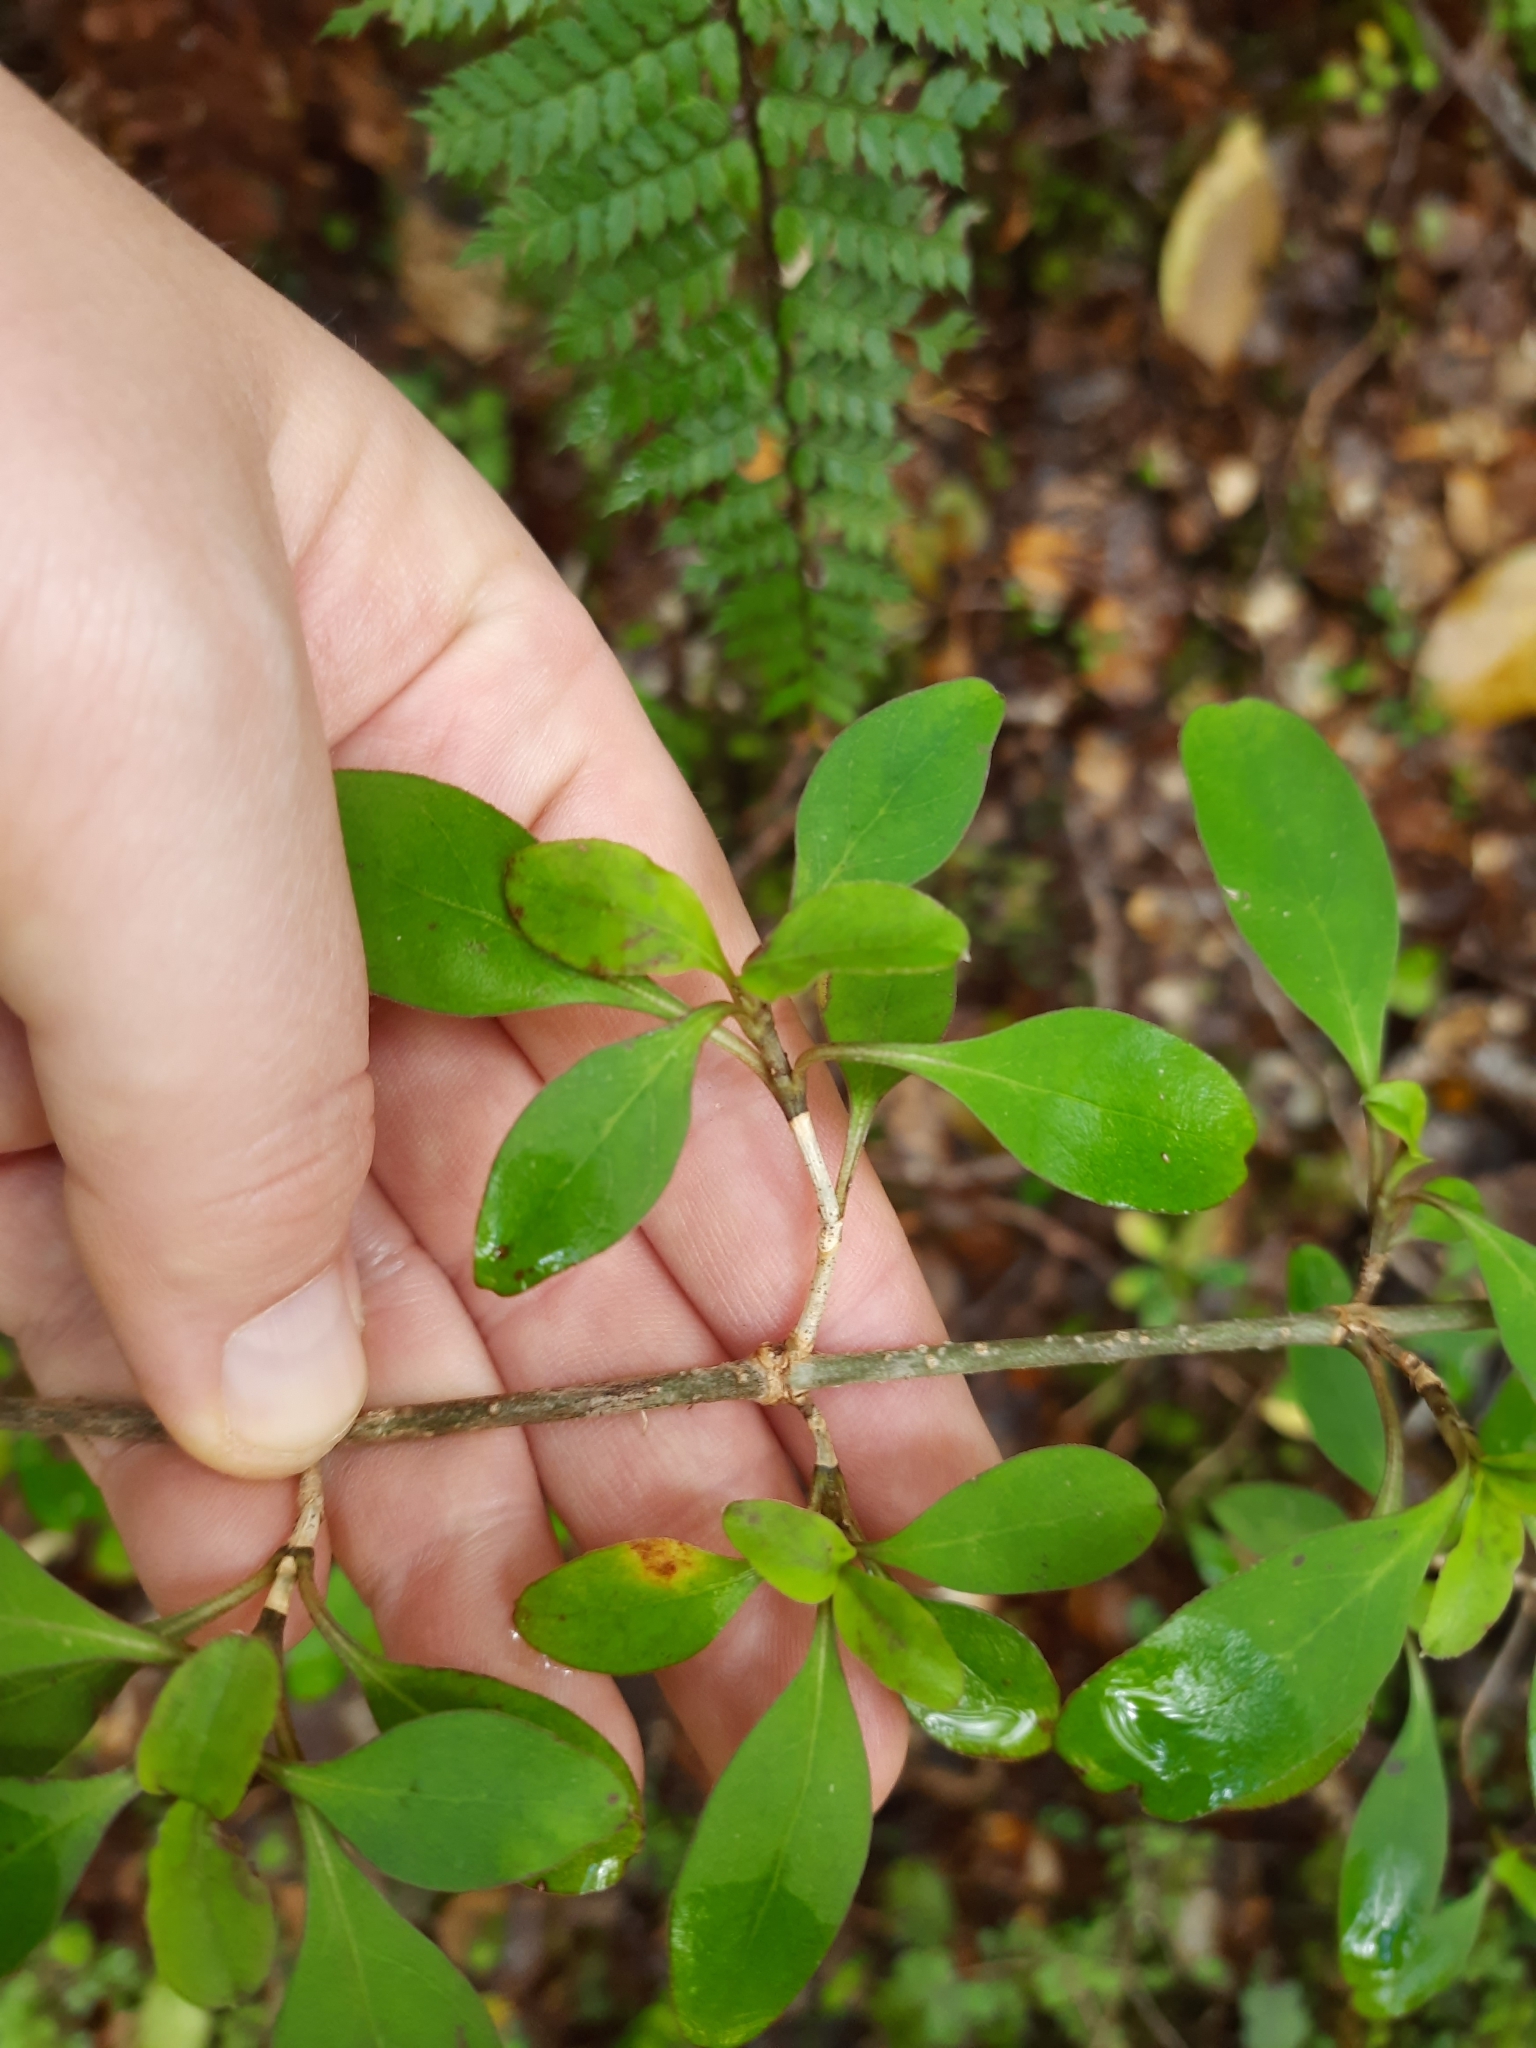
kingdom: Plantae
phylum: Tracheophyta
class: Magnoliopsida
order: Gentianales
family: Rubiaceae
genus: Coprosma
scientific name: Coprosma foetidissima
